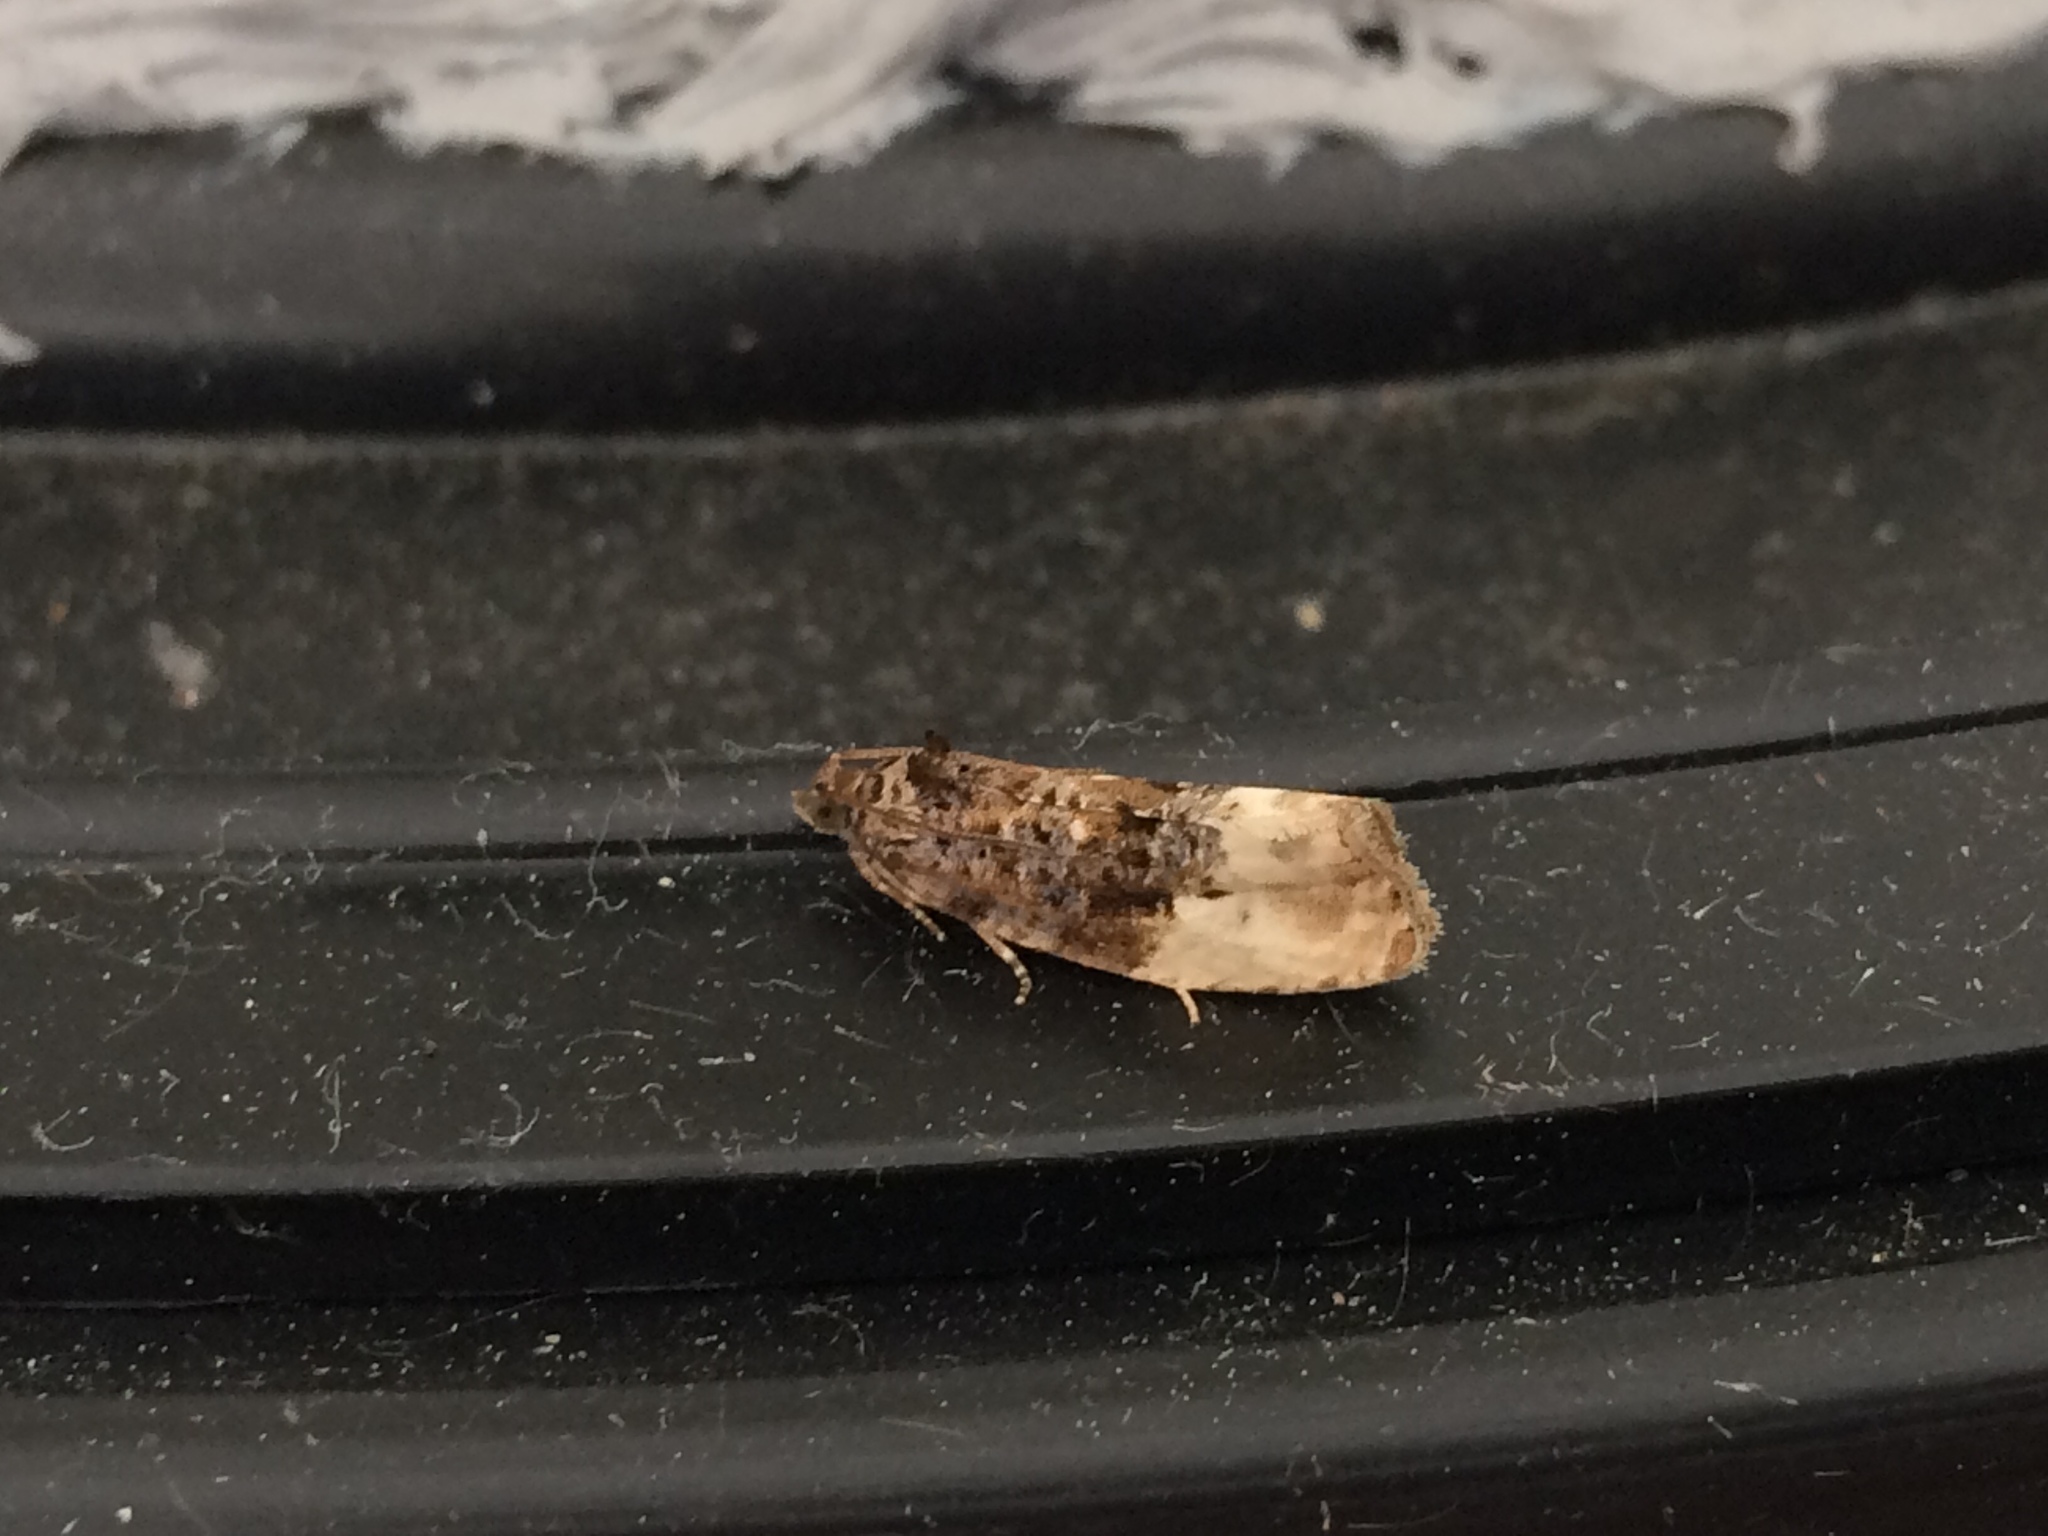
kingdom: Animalia
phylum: Arthropoda
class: Insecta
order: Lepidoptera
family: Tortricidae
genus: Hedya
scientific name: Hedya nubiferana
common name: Marbled orchard tortrix
